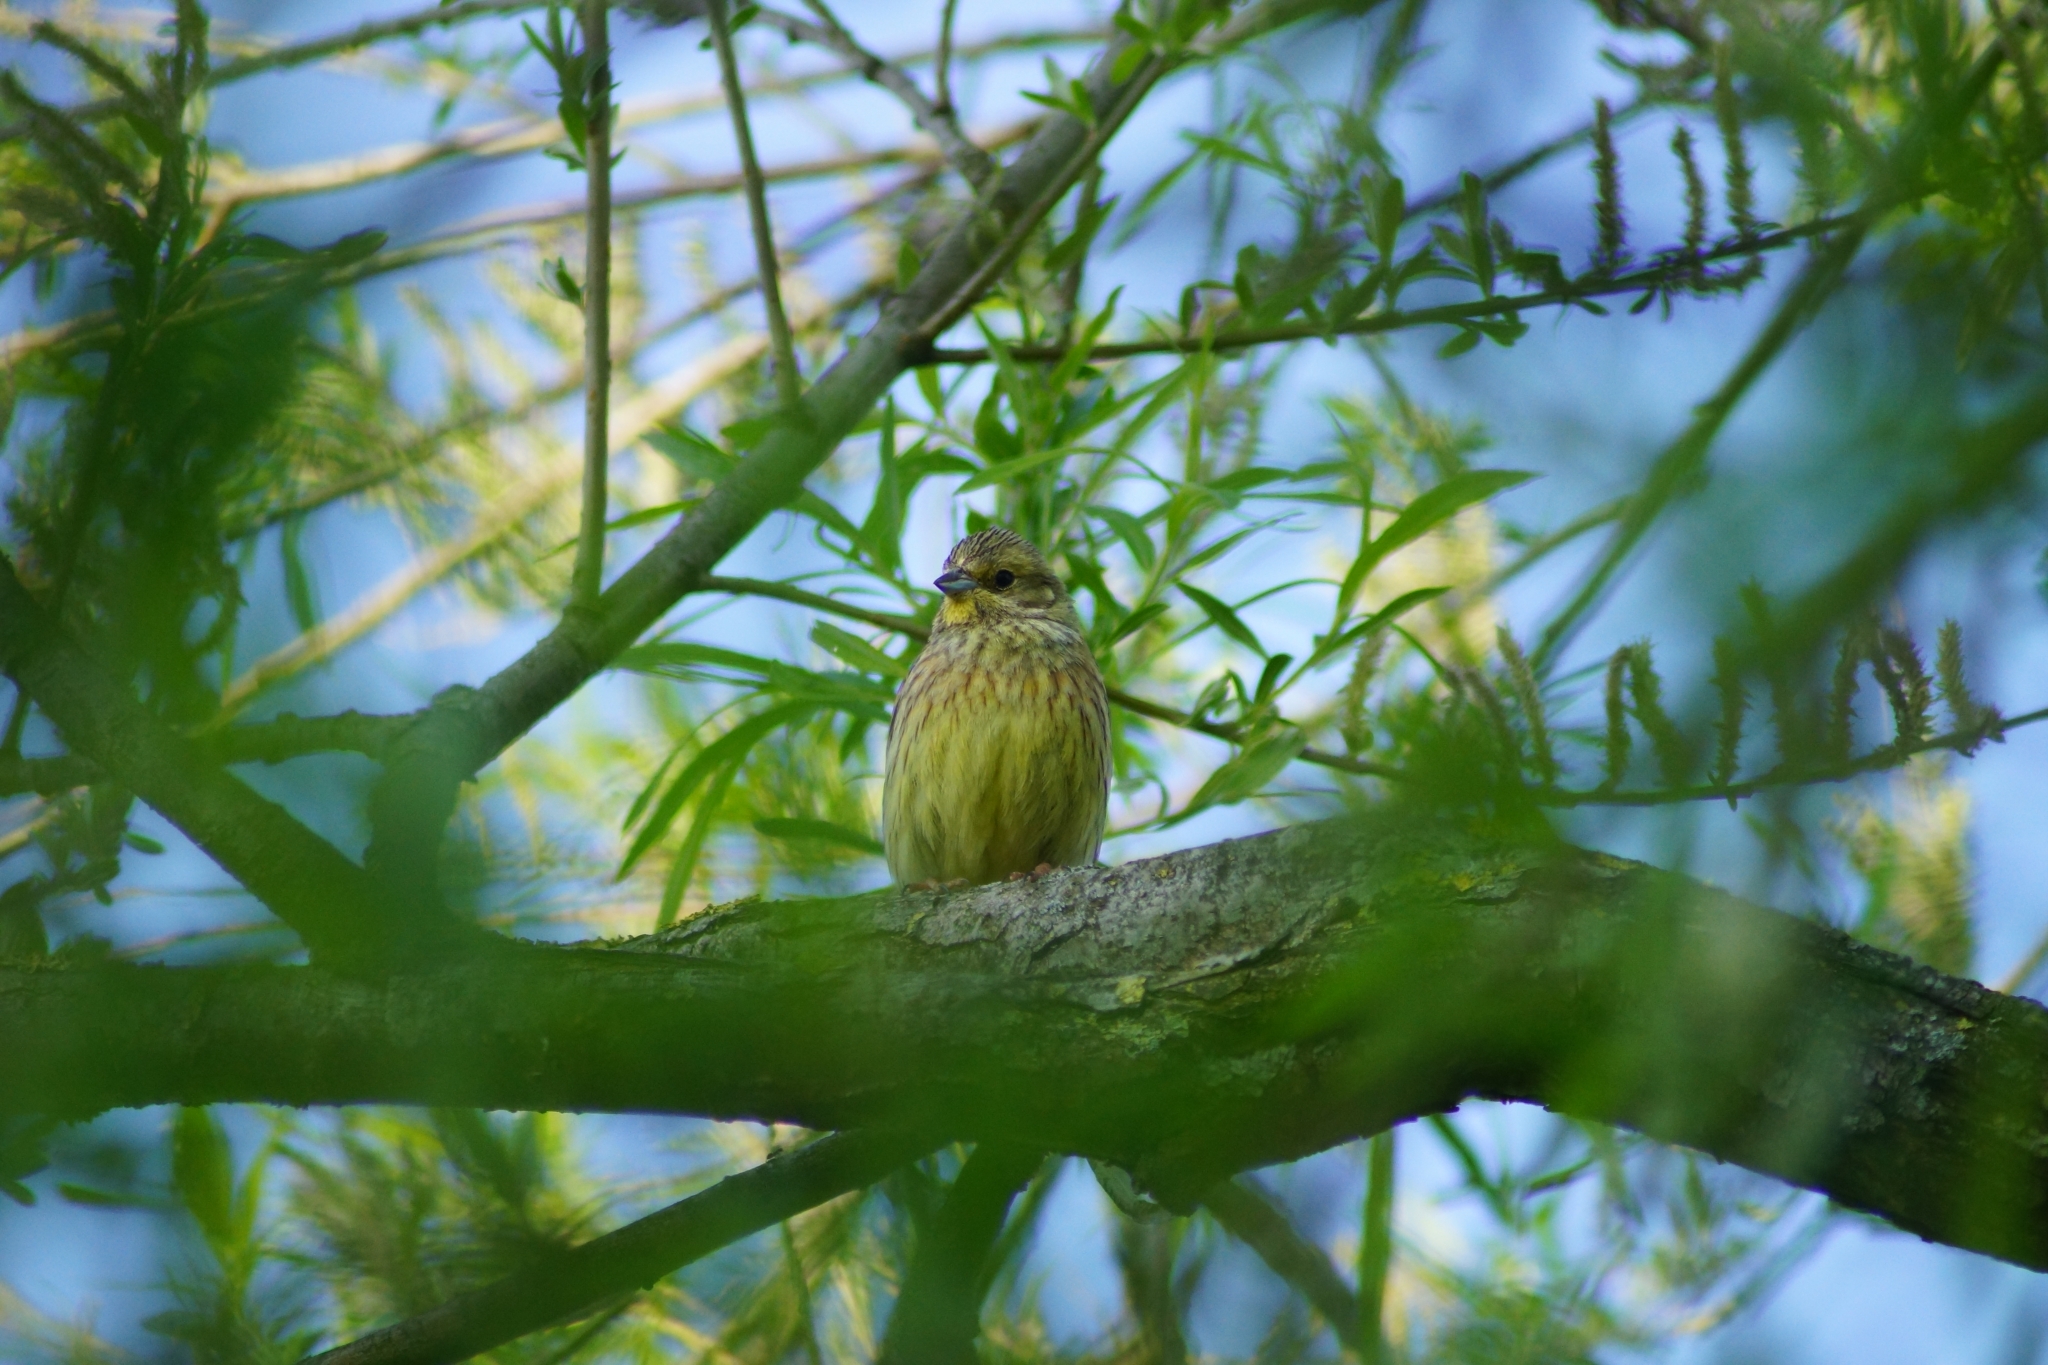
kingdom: Animalia
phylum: Chordata
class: Aves
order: Passeriformes
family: Emberizidae
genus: Emberiza
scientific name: Emberiza citrinella
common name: Yellowhammer
